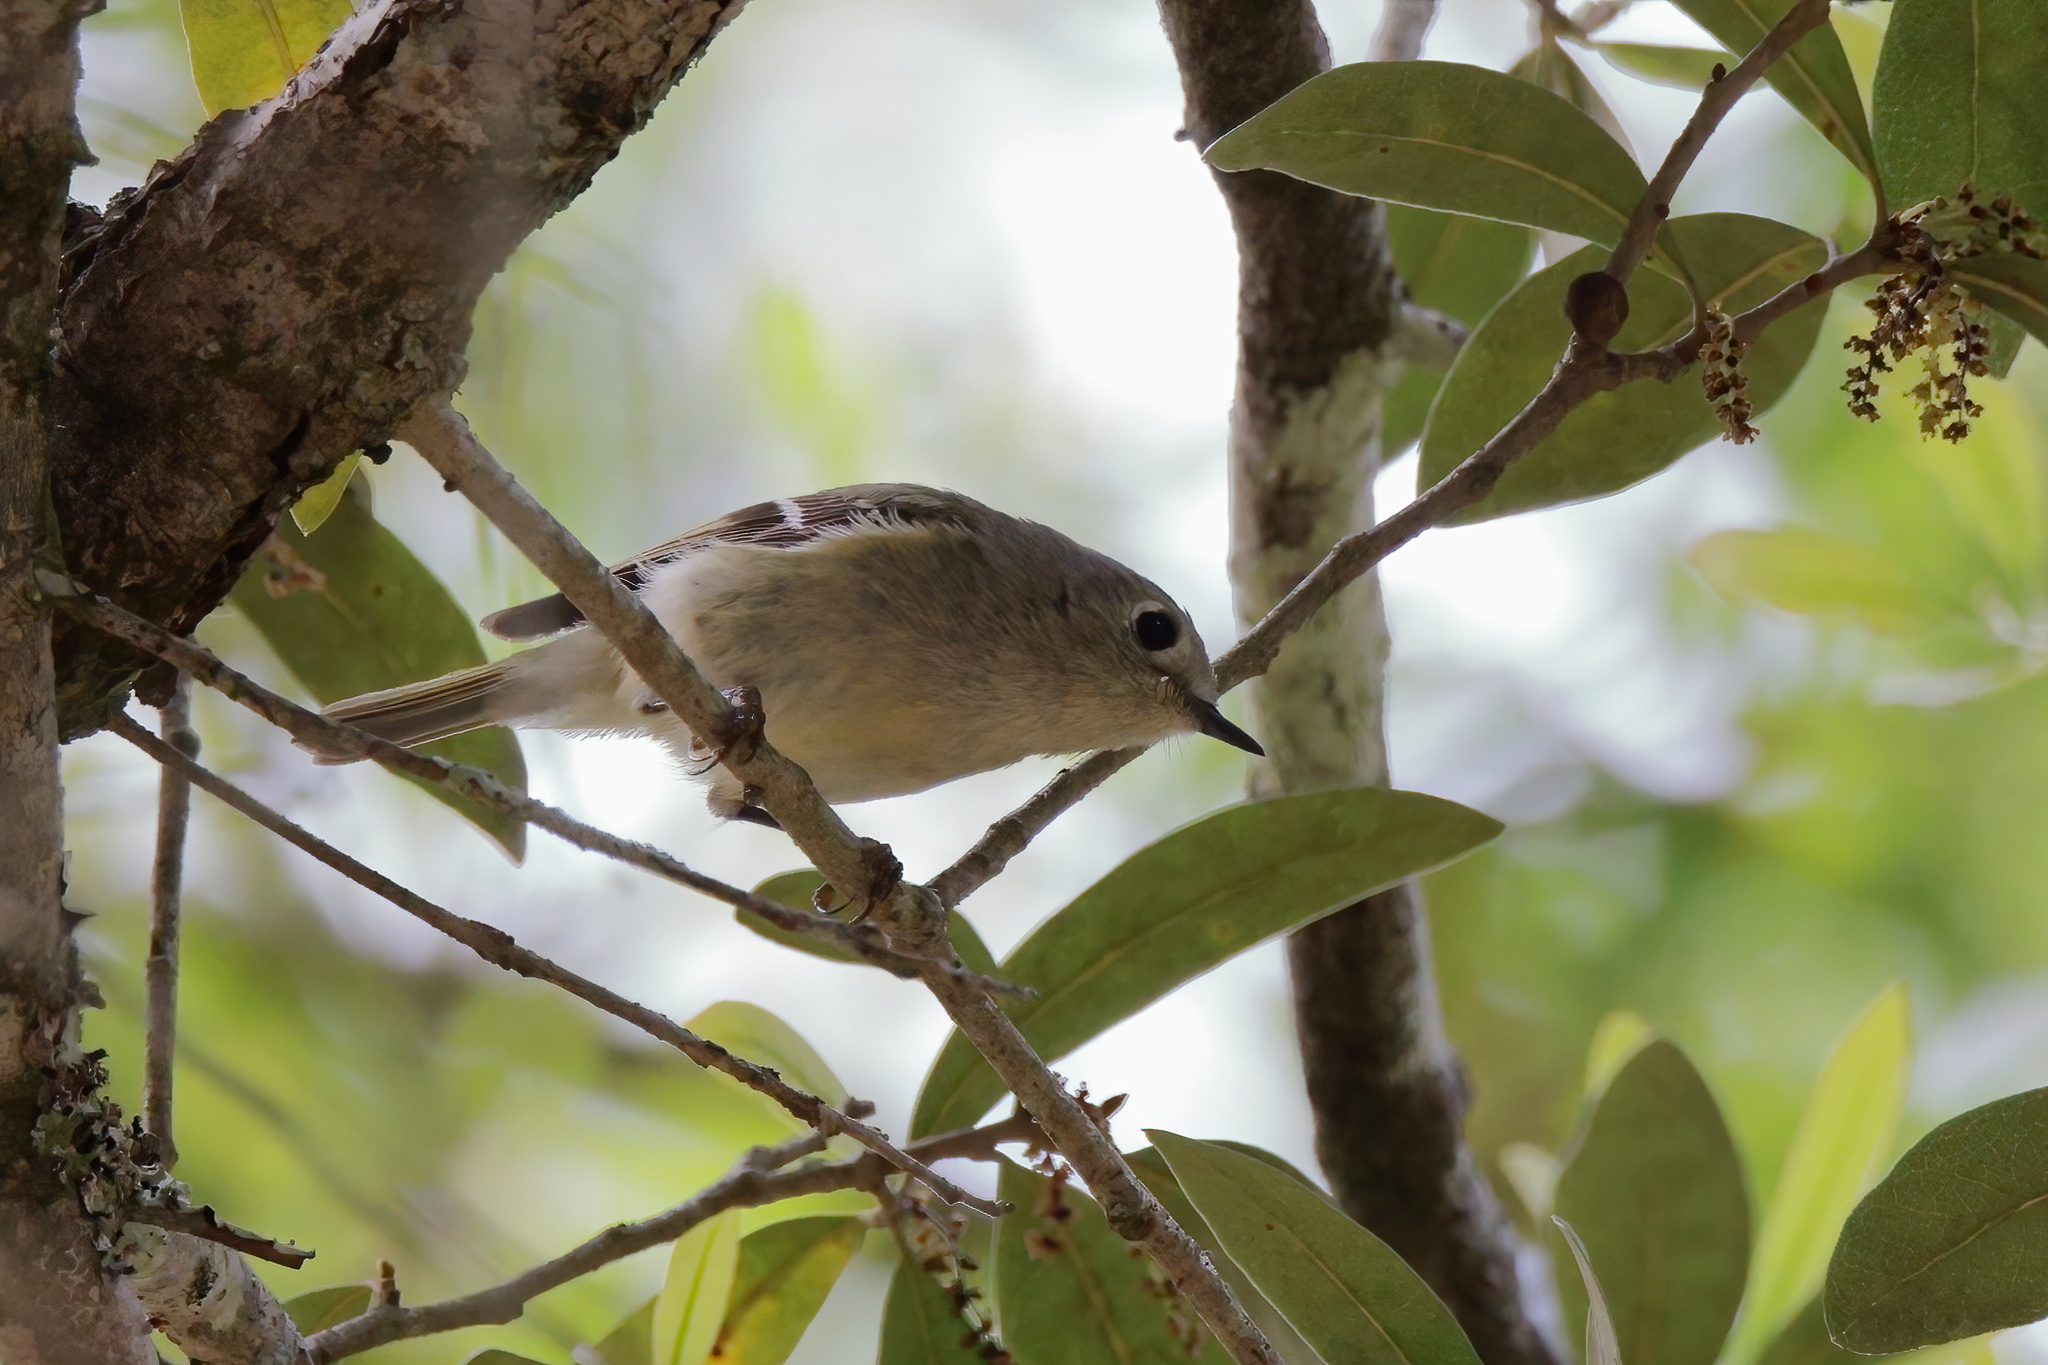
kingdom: Animalia
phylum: Chordata
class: Aves
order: Passeriformes
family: Regulidae
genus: Regulus
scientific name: Regulus calendula
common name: Ruby-crowned kinglet
